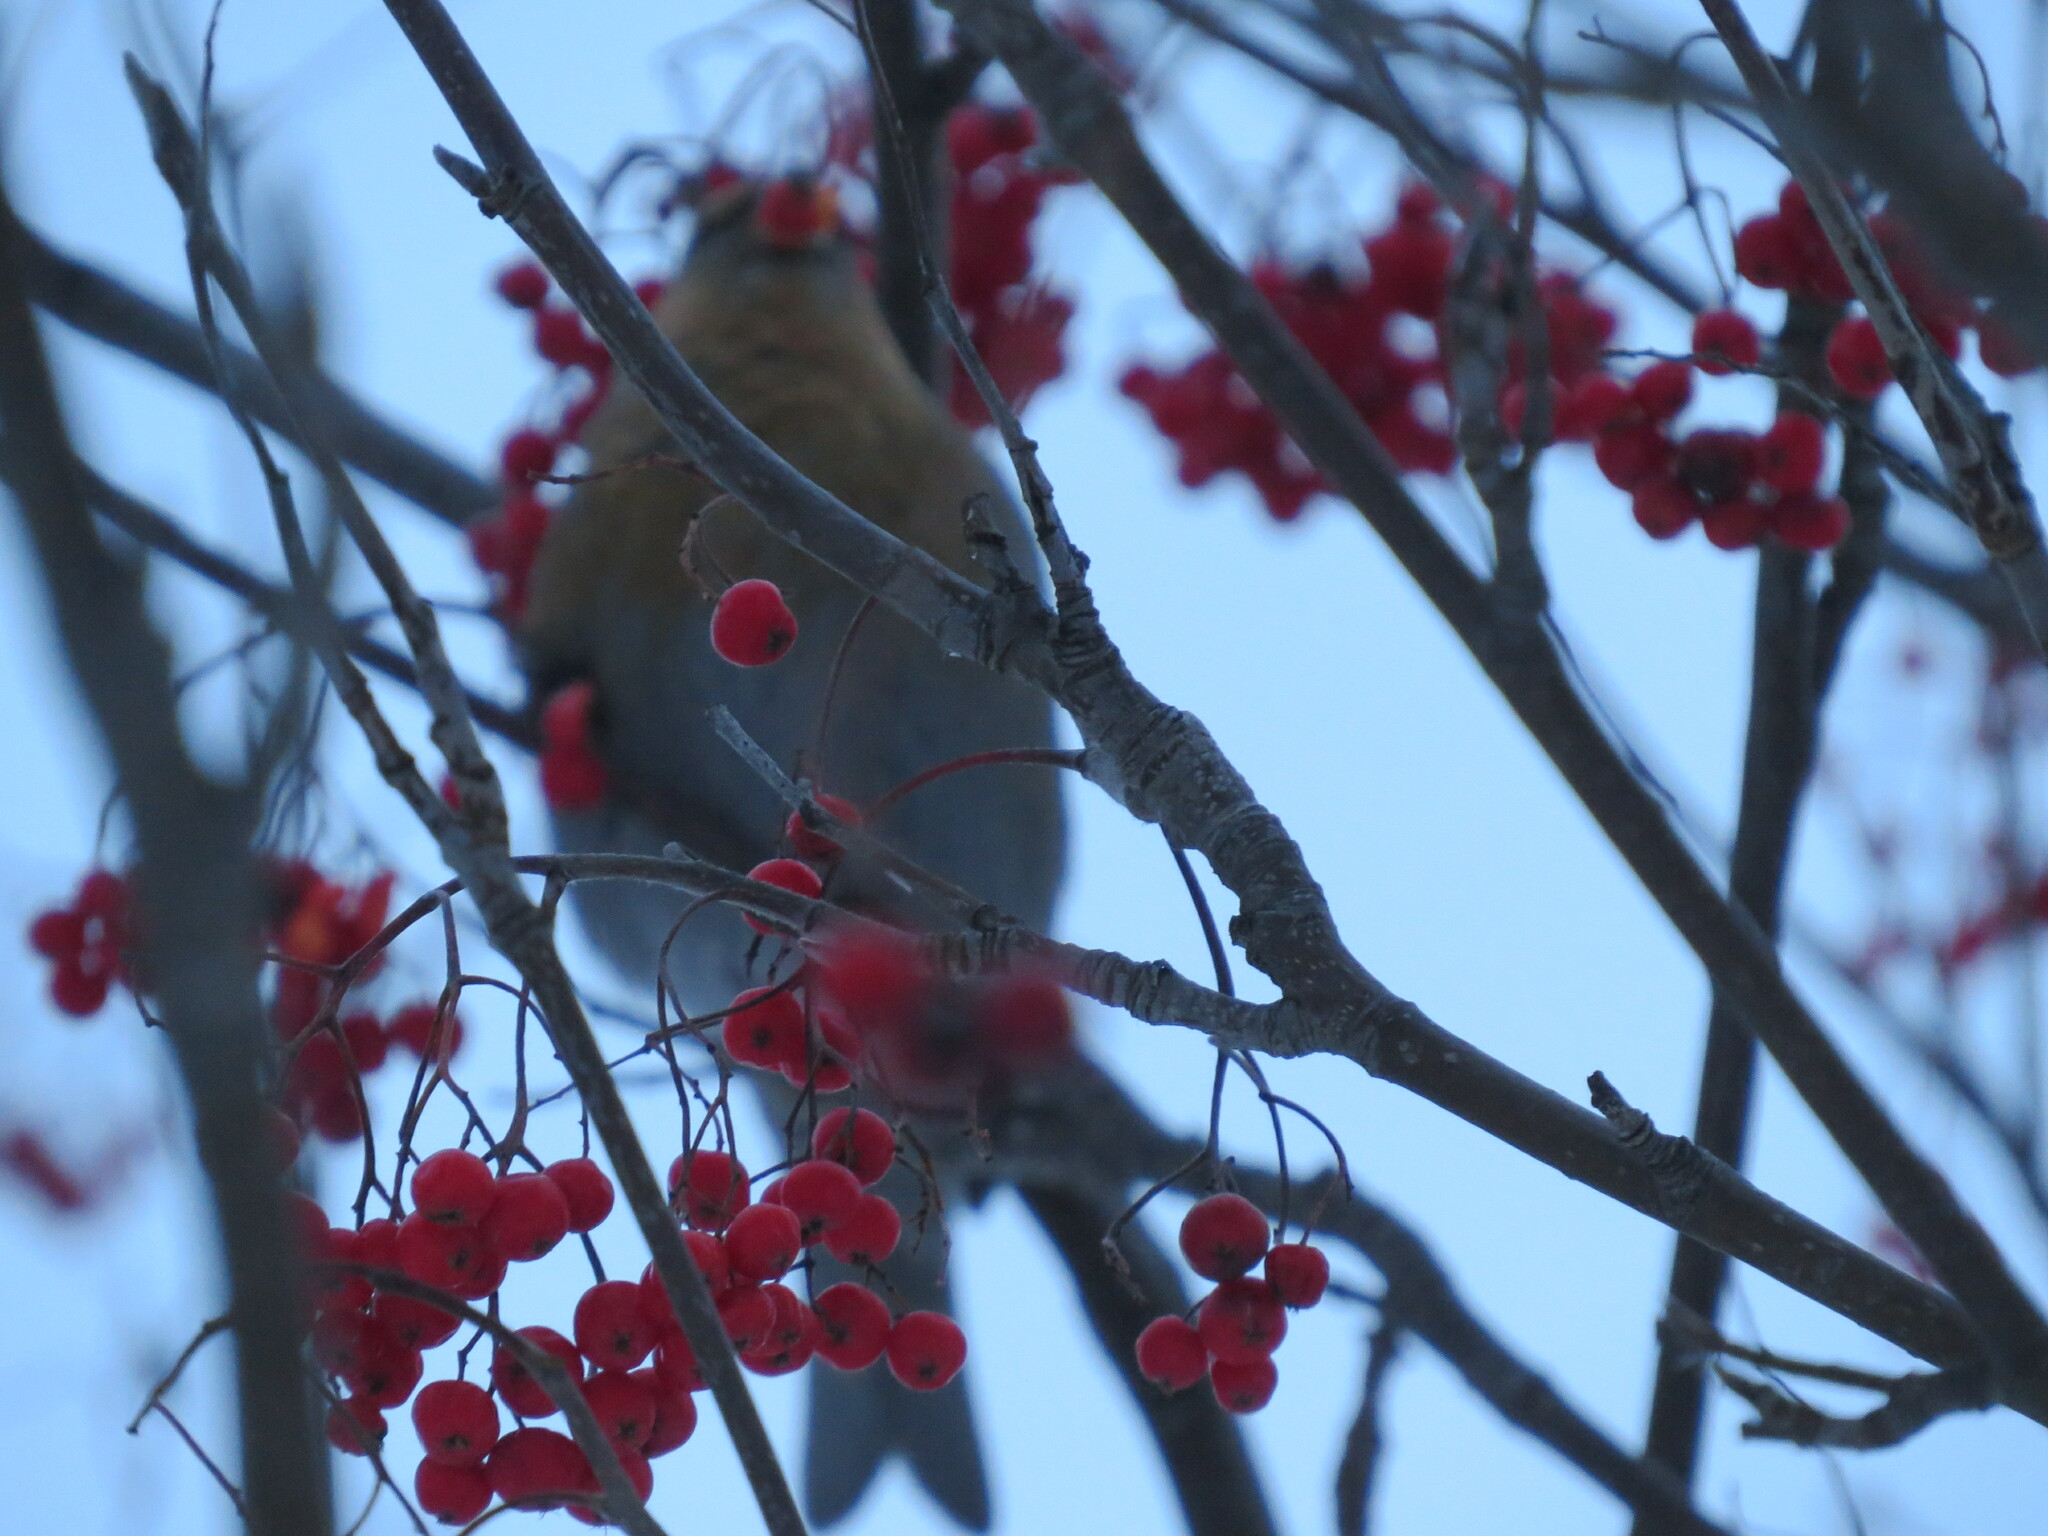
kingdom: Animalia
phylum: Chordata
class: Aves
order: Passeriformes
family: Fringillidae
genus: Pinicola
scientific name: Pinicola enucleator
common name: Pine grosbeak
